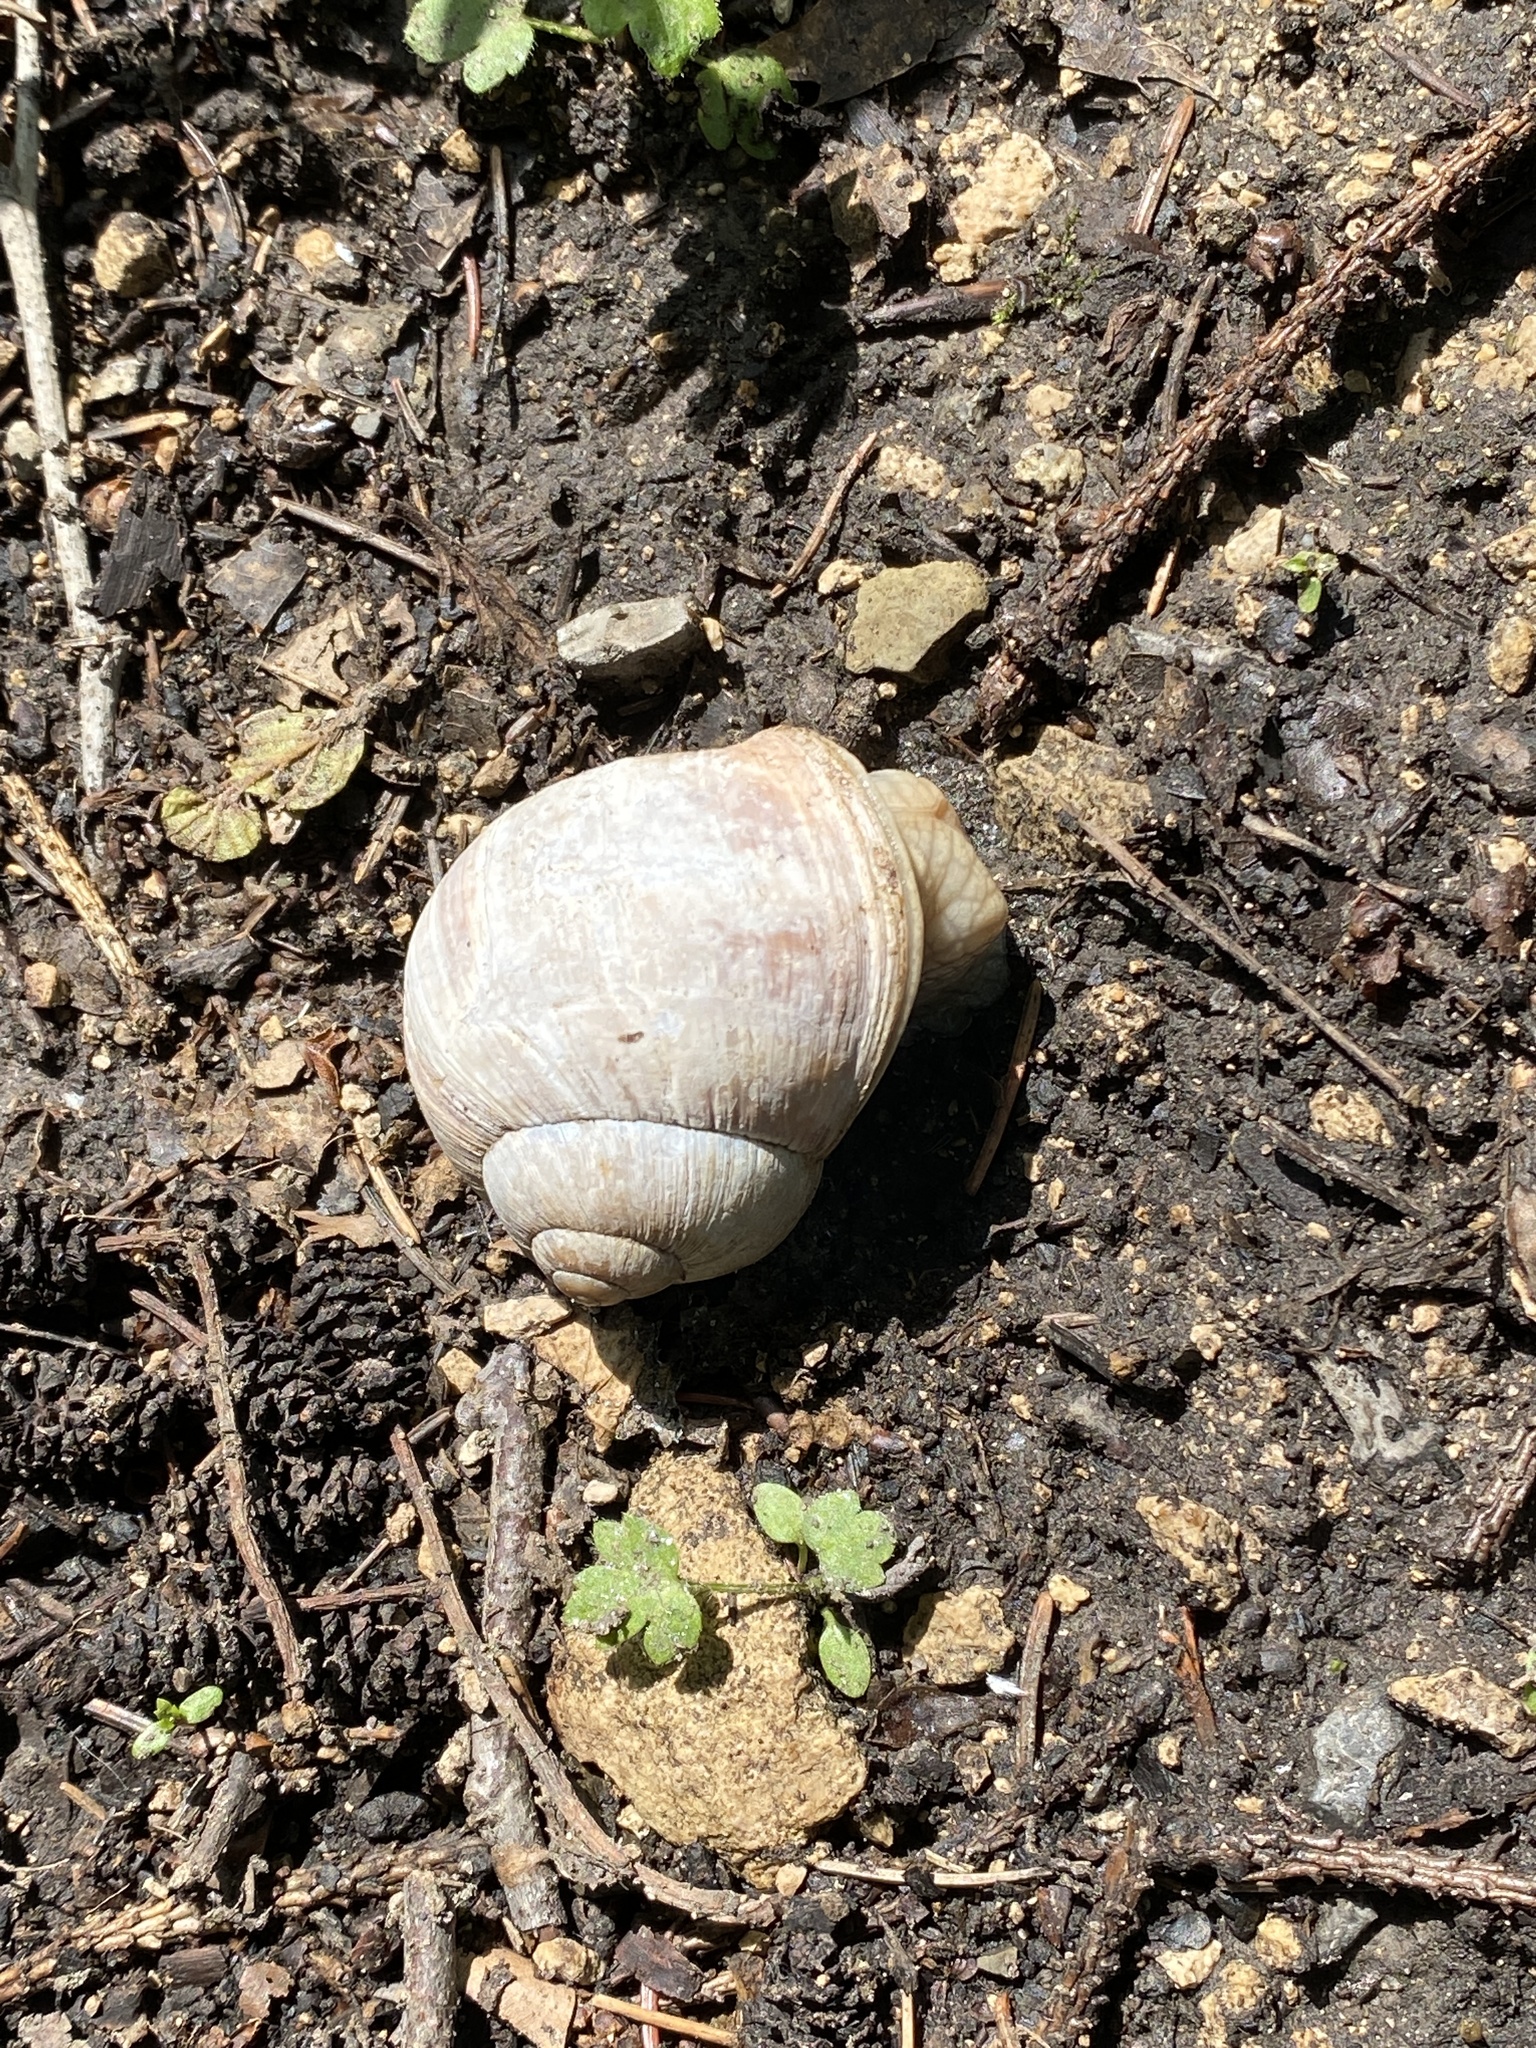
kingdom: Animalia
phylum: Mollusca
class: Gastropoda
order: Stylommatophora
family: Helicidae
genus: Helix
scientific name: Helix pomatia
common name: Roman snail
